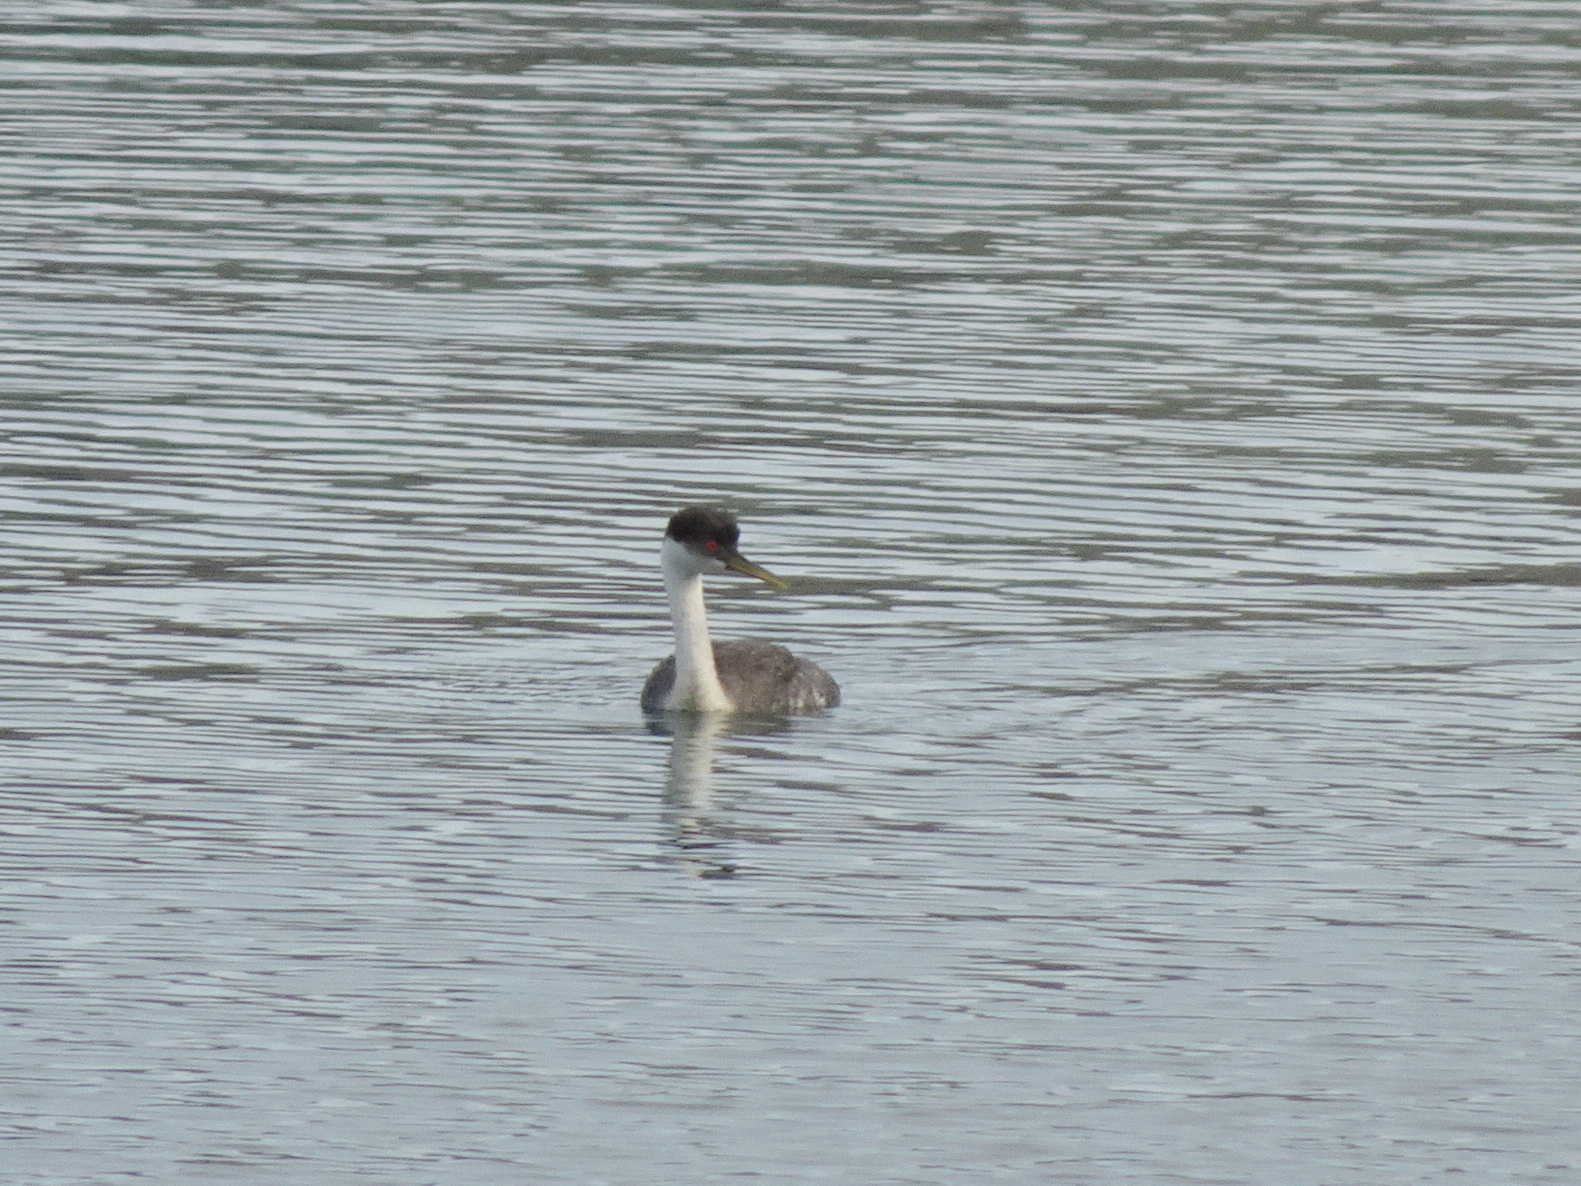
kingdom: Animalia
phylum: Chordata
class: Aves
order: Podicipediformes
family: Podicipedidae
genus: Aechmophorus
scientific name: Aechmophorus occidentalis
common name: Western grebe
